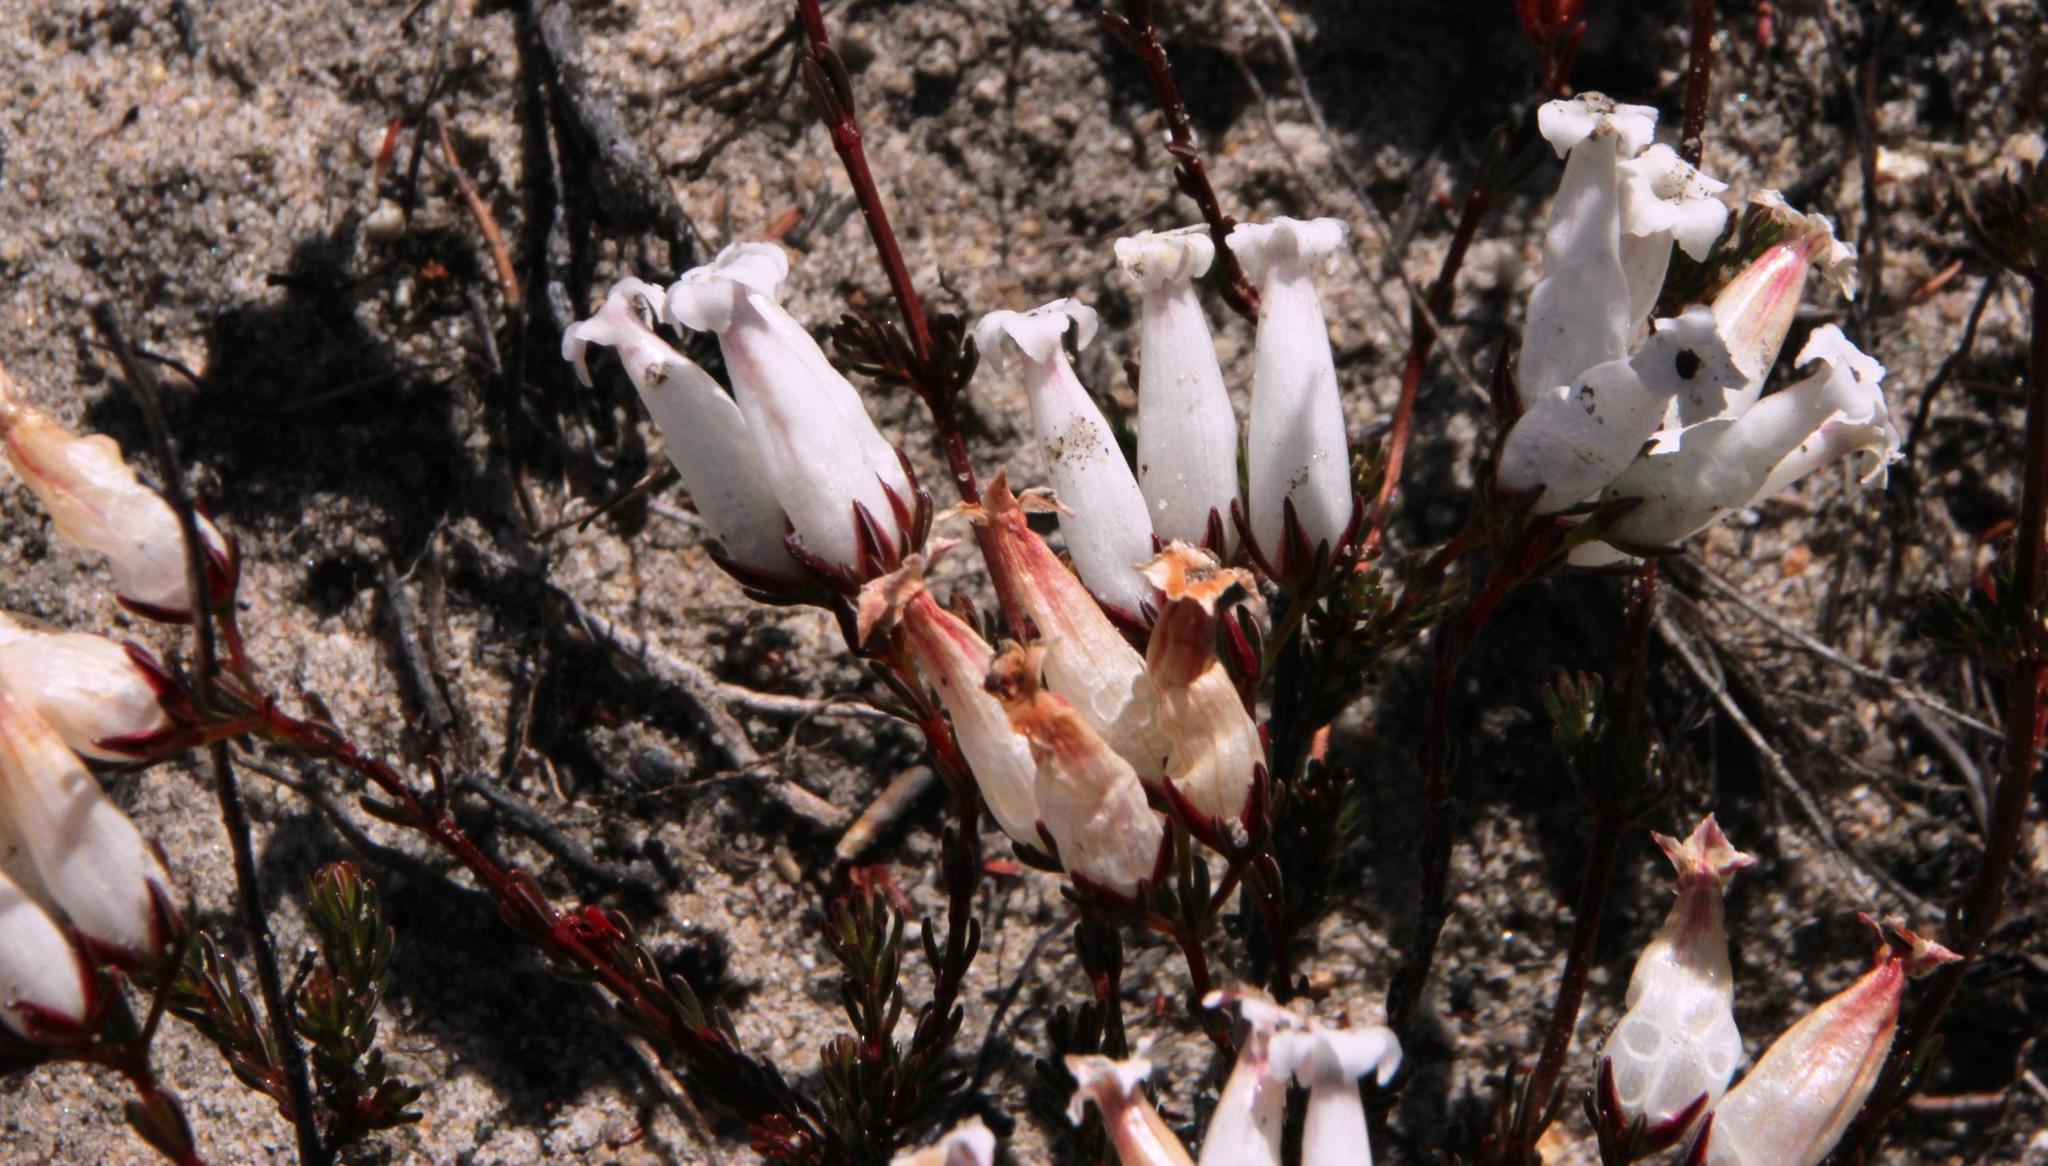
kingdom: Plantae
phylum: Tracheophyta
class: Magnoliopsida
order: Ericales
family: Ericaceae
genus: Erica
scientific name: Erica savilea
